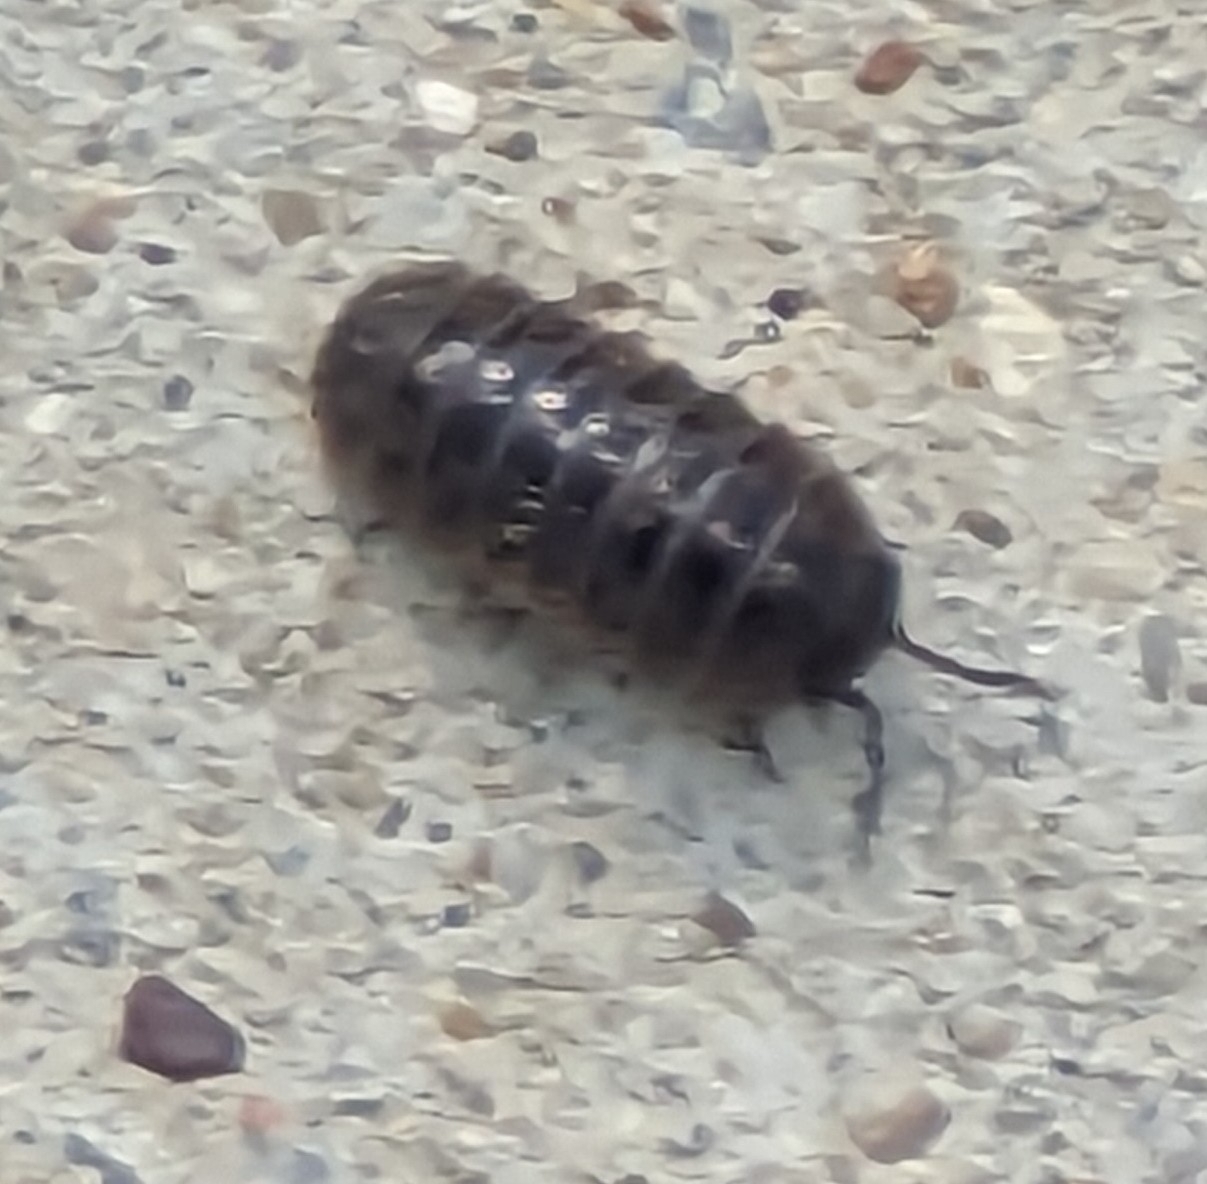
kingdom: Animalia
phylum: Arthropoda
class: Malacostraca
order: Isopoda
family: Armadillidiidae
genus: Armadillidium
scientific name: Armadillidium vulgare
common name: Common pill woodlouse
